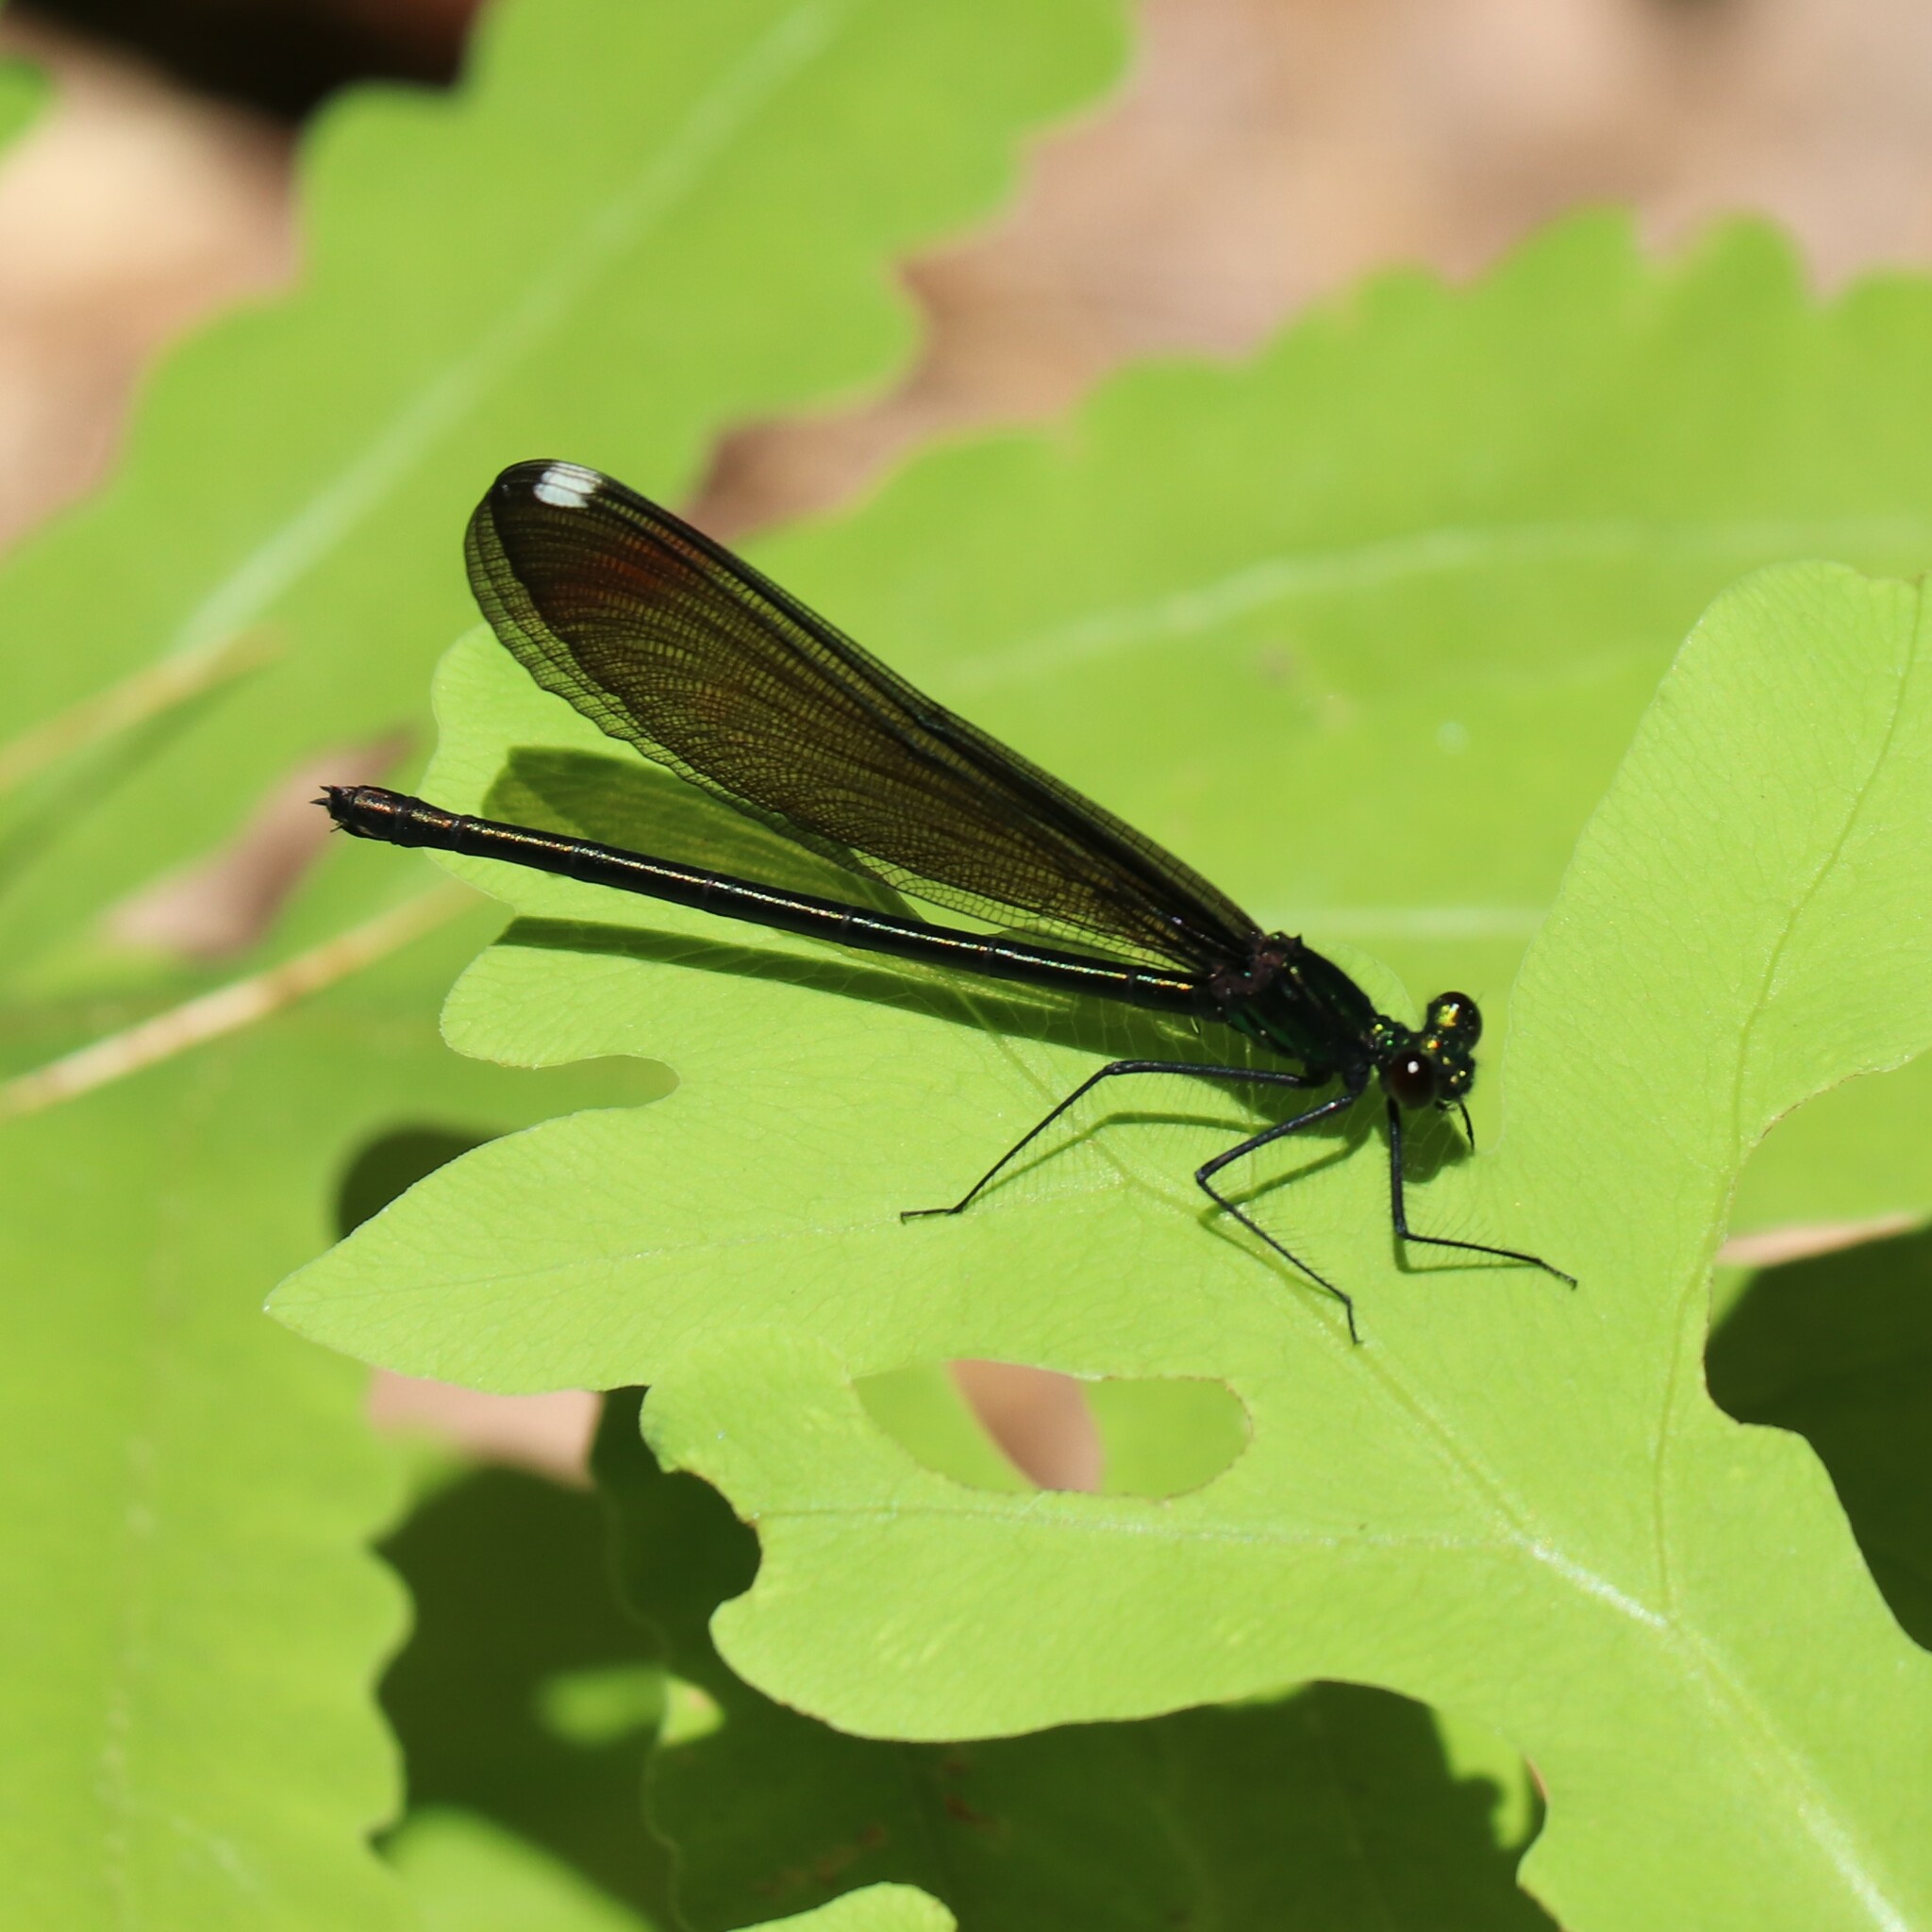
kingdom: Animalia
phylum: Arthropoda
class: Insecta
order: Odonata
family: Calopterygidae
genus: Calopteryx
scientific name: Calopteryx maculata
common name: Ebony jewelwing
